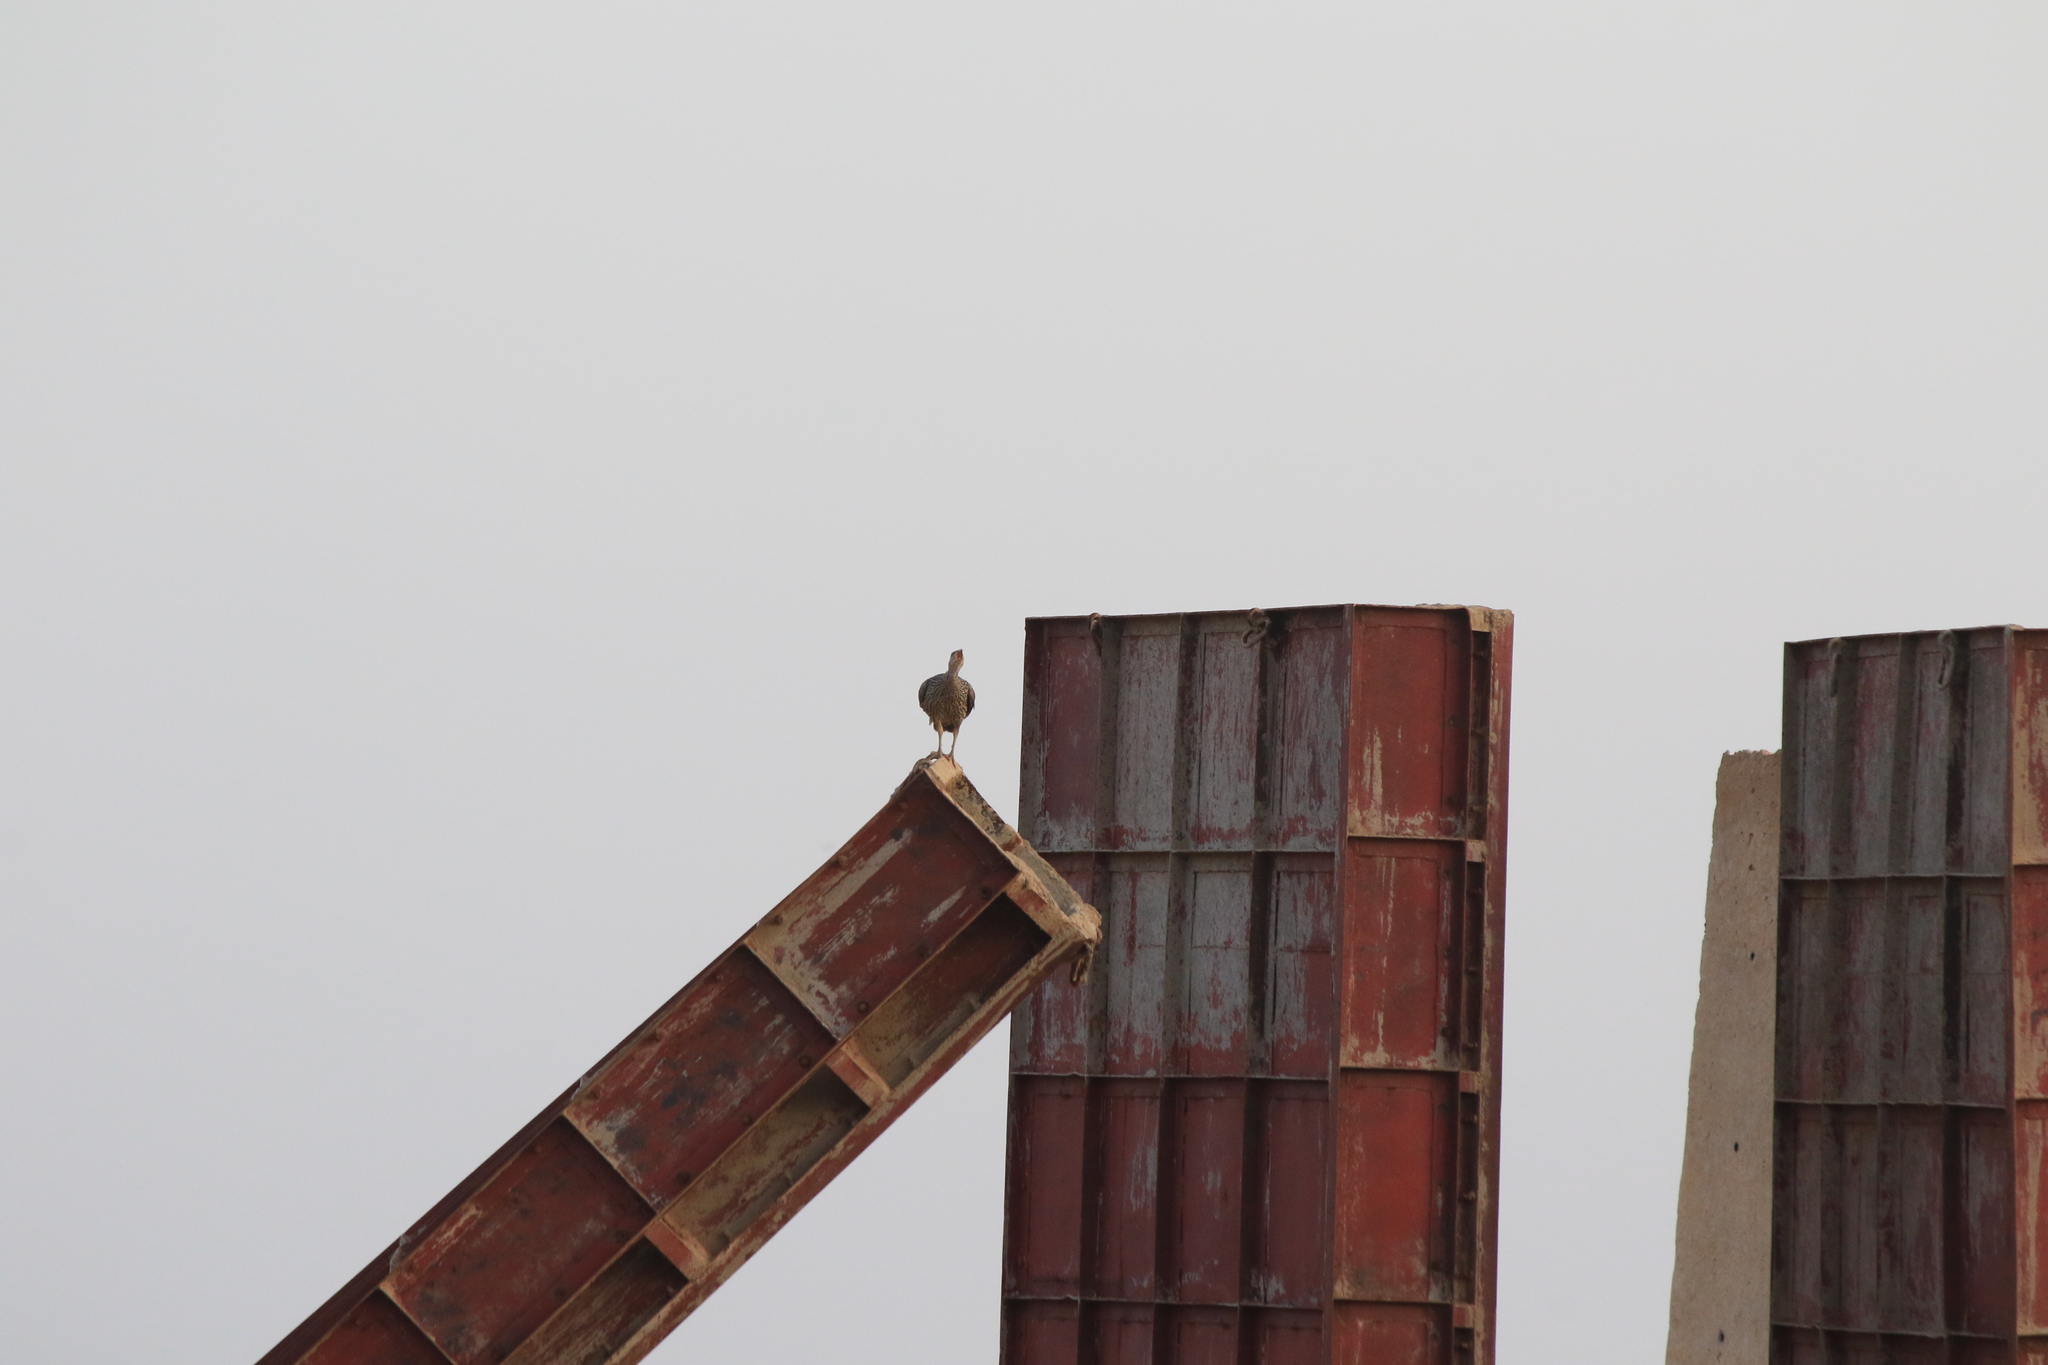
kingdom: Animalia
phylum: Chordata
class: Aves
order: Galliformes
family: Phasianidae
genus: Pternistis
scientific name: Pternistis bicalcaratus
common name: Double-spurred francolin
